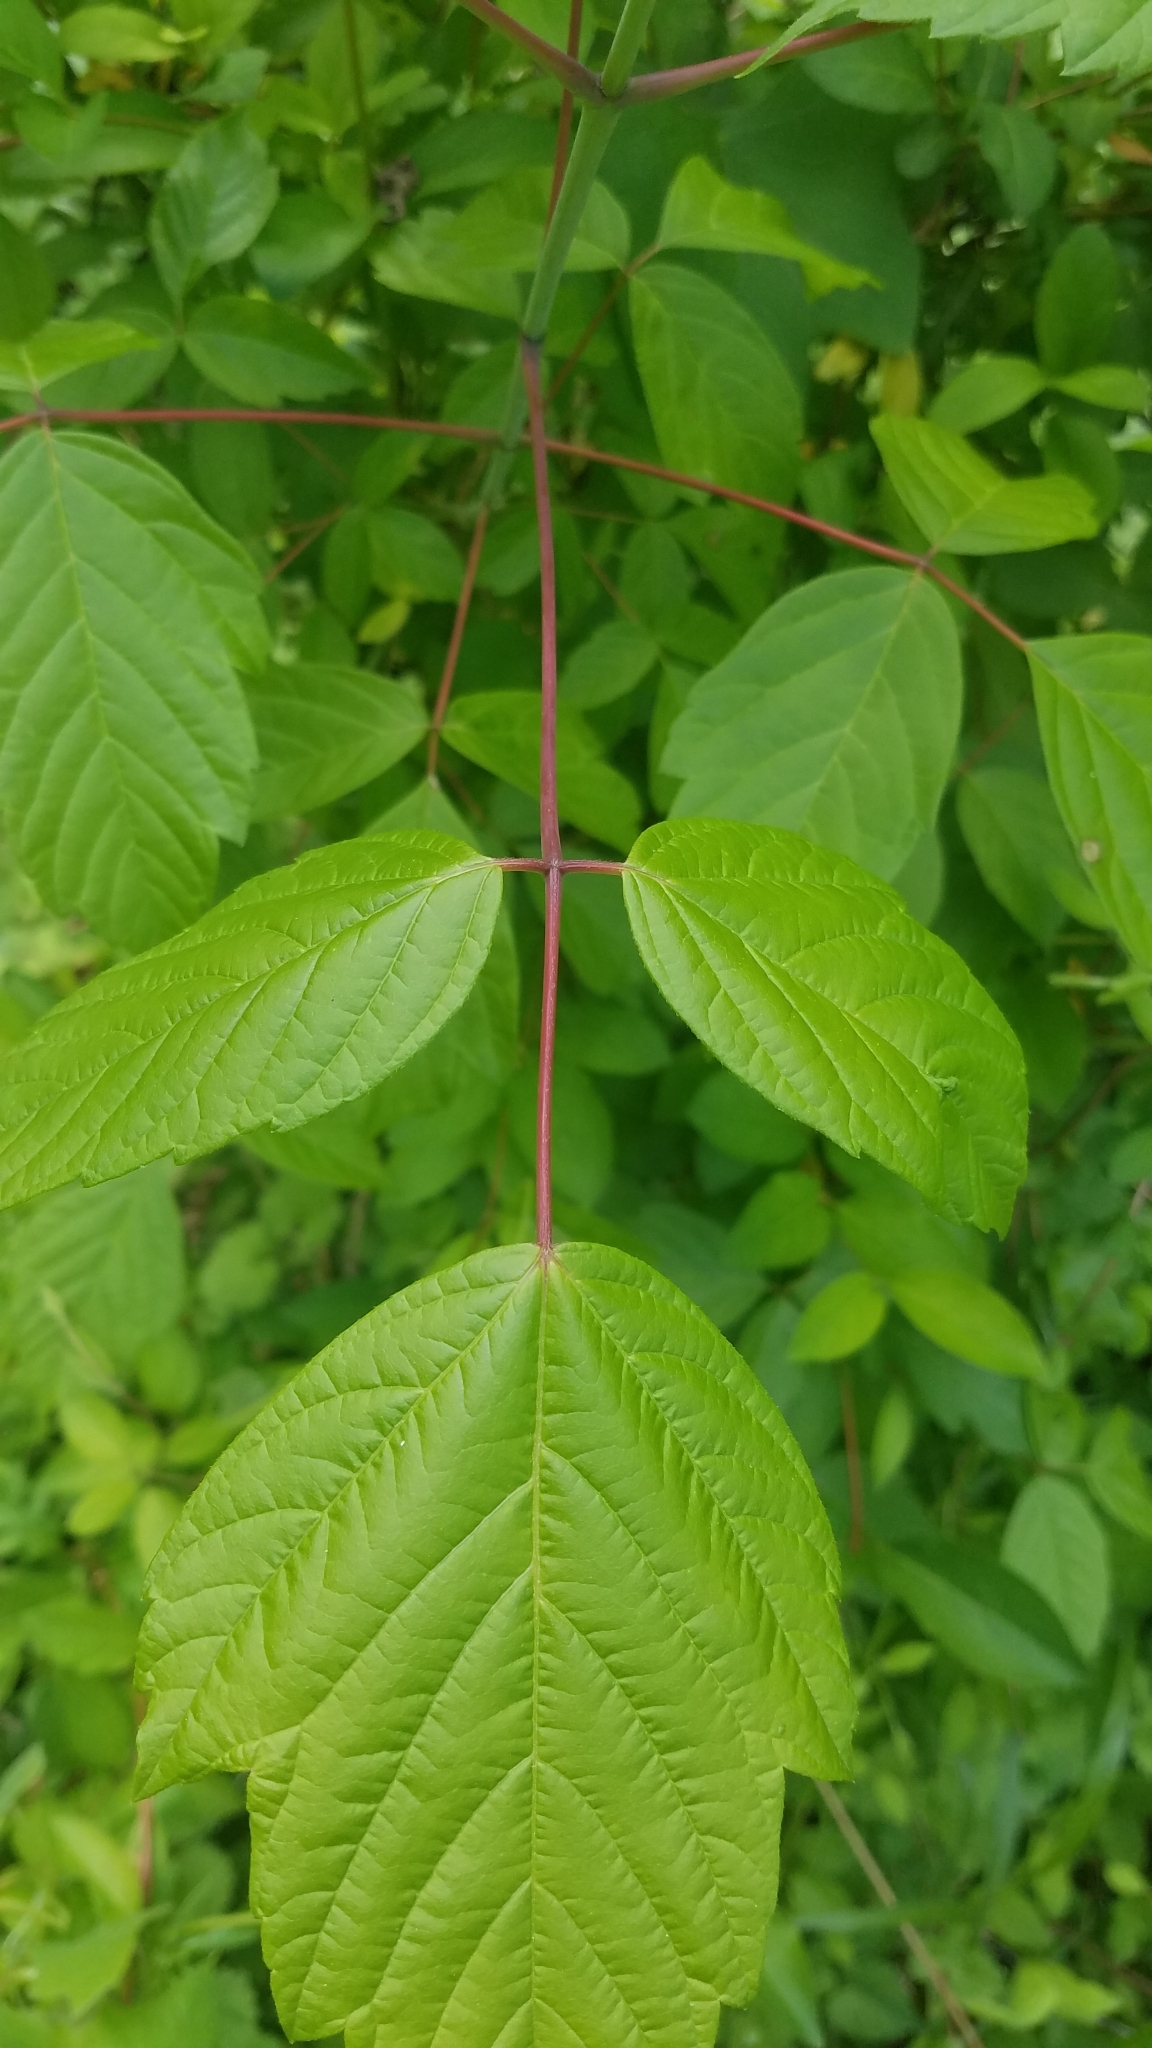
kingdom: Plantae
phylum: Tracheophyta
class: Magnoliopsida
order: Sapindales
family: Sapindaceae
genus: Acer
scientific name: Acer negundo
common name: Ashleaf maple
